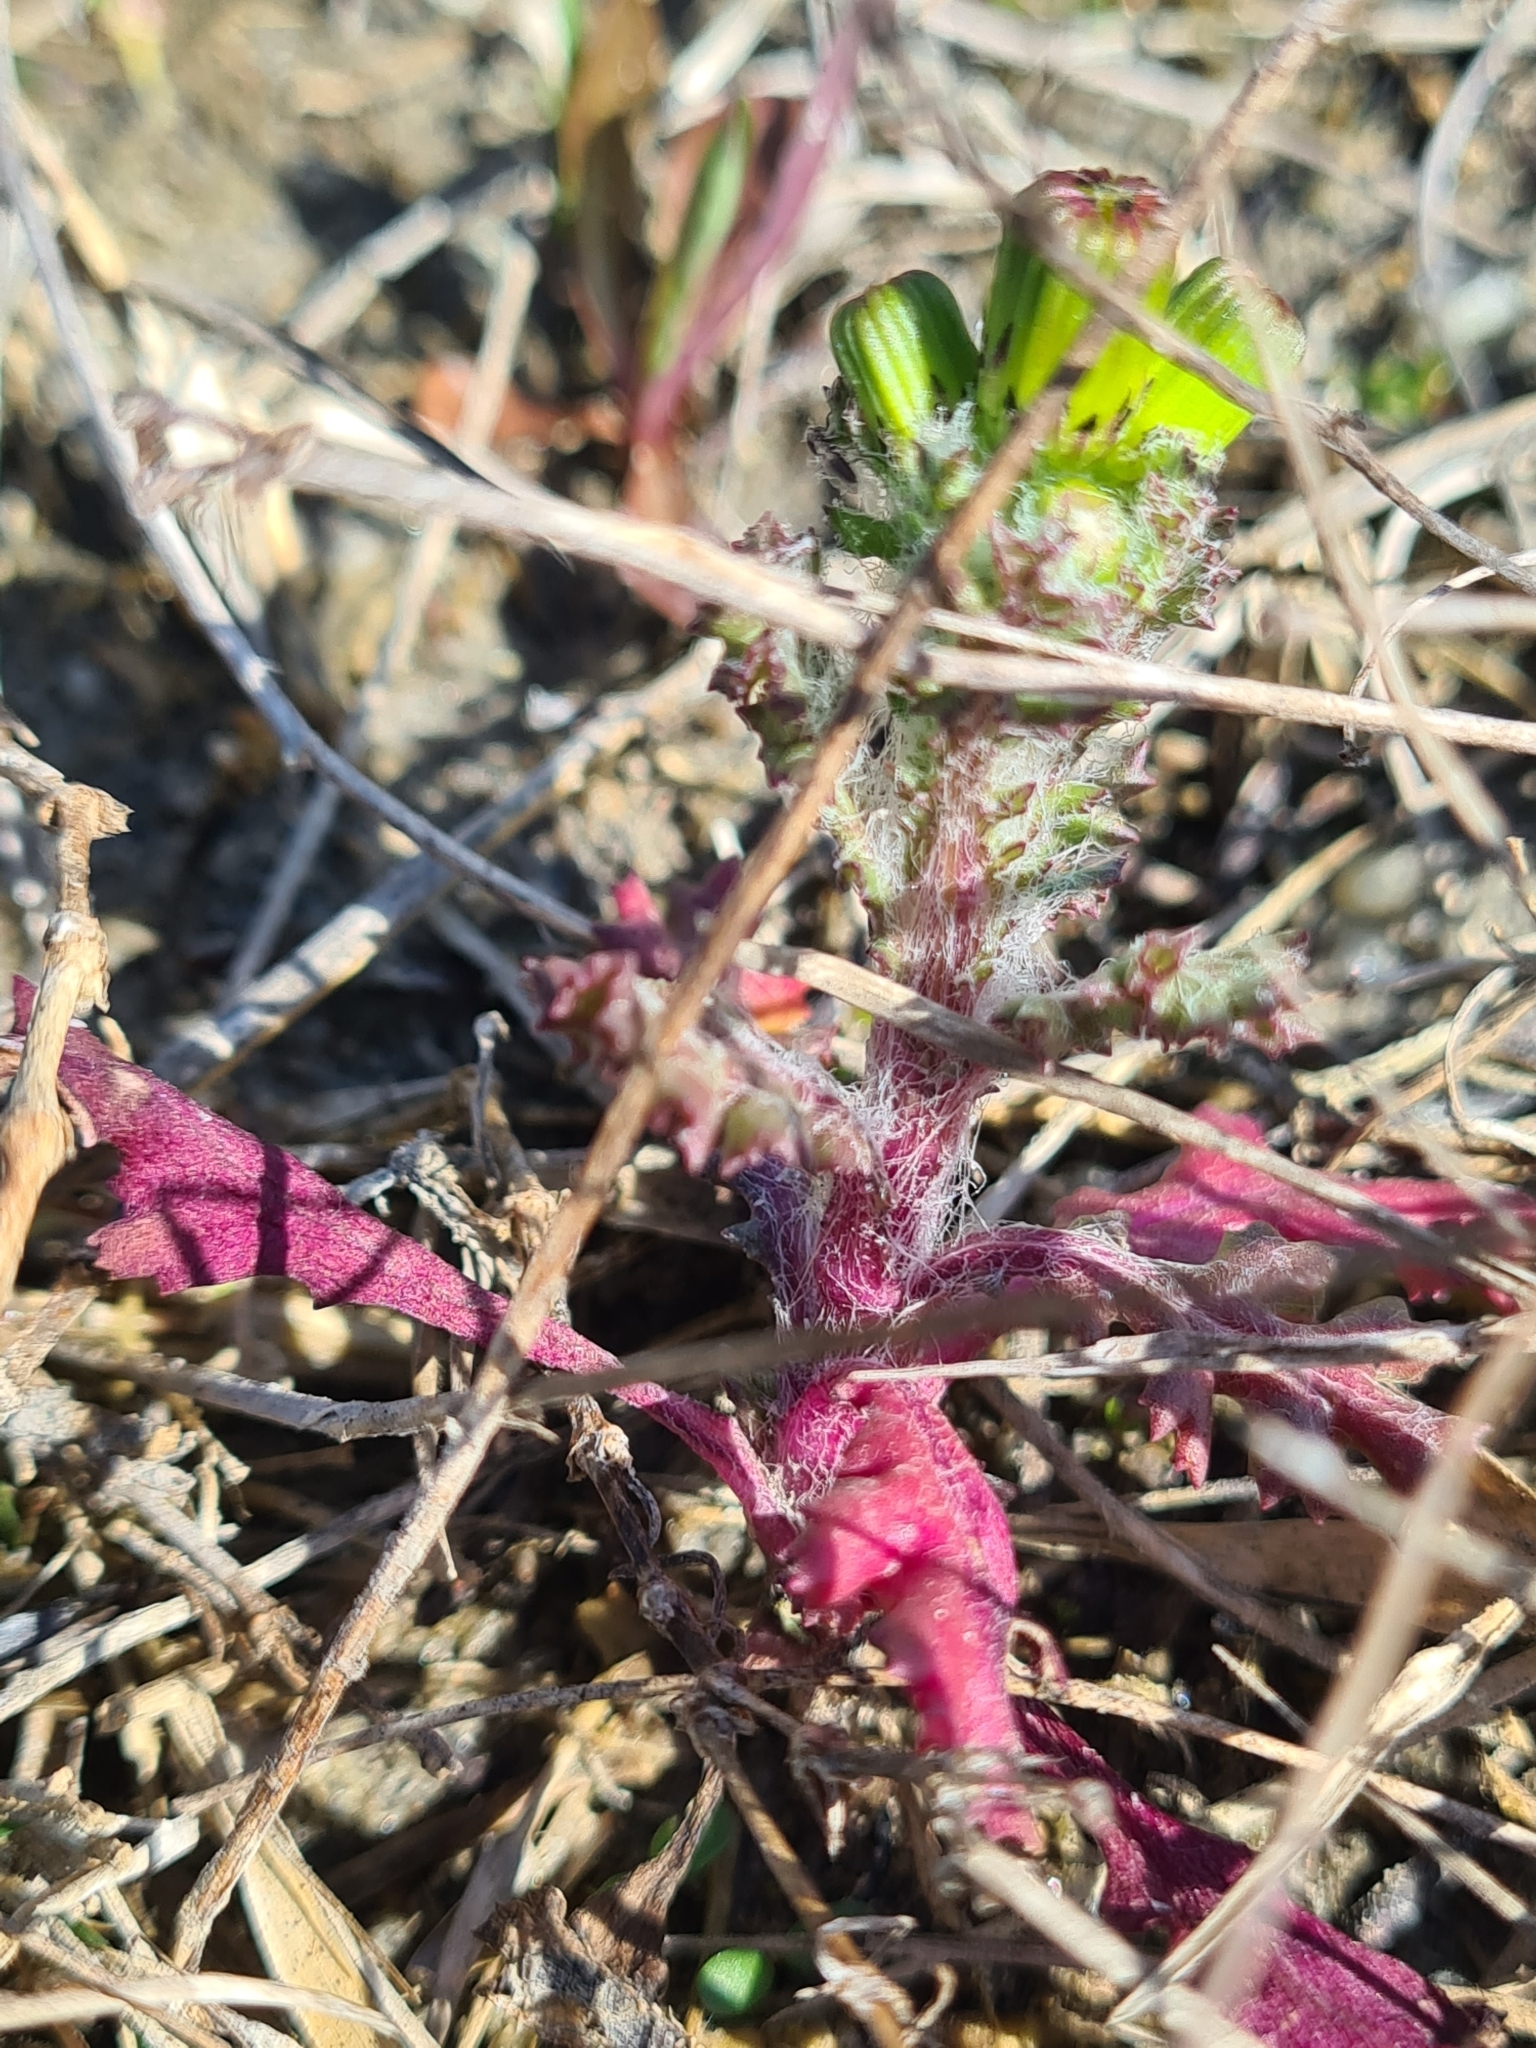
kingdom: Plantae
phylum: Tracheophyta
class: Magnoliopsida
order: Asterales
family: Asteraceae
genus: Senecio
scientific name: Senecio vulgaris
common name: Old-man-in-the-spring
